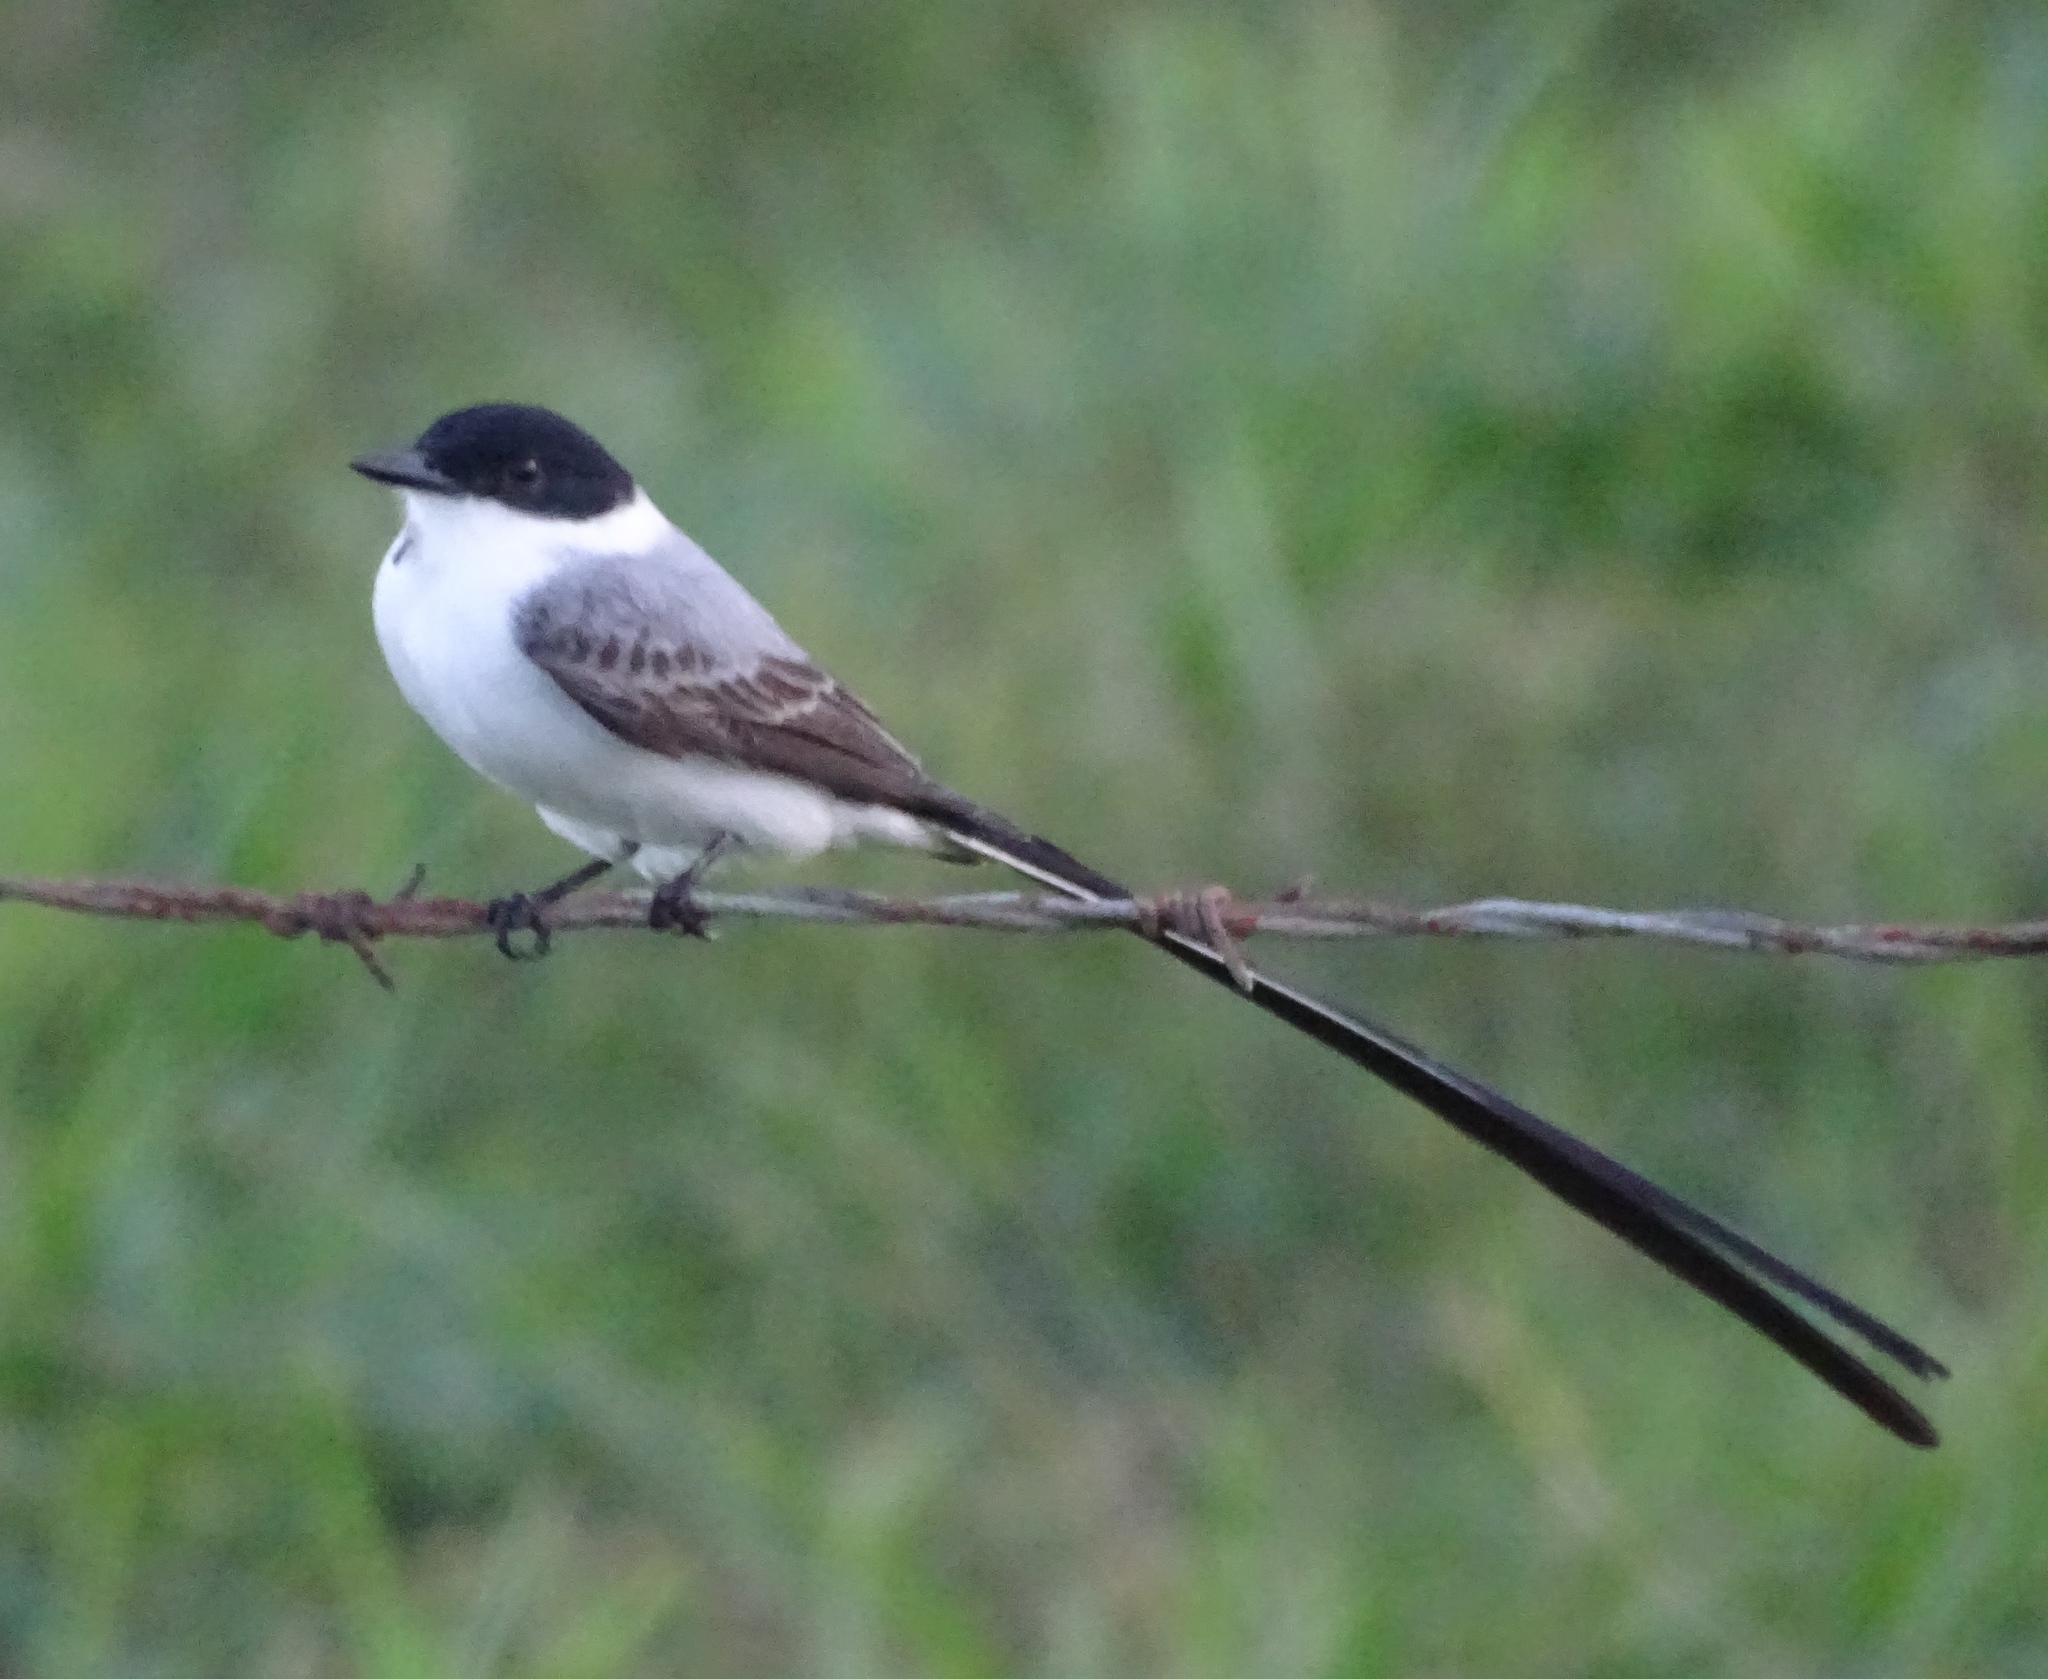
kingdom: Animalia
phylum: Chordata
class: Aves
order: Passeriformes
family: Tyrannidae
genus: Tyrannus
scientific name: Tyrannus savana
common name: Fork-tailed flycatcher
